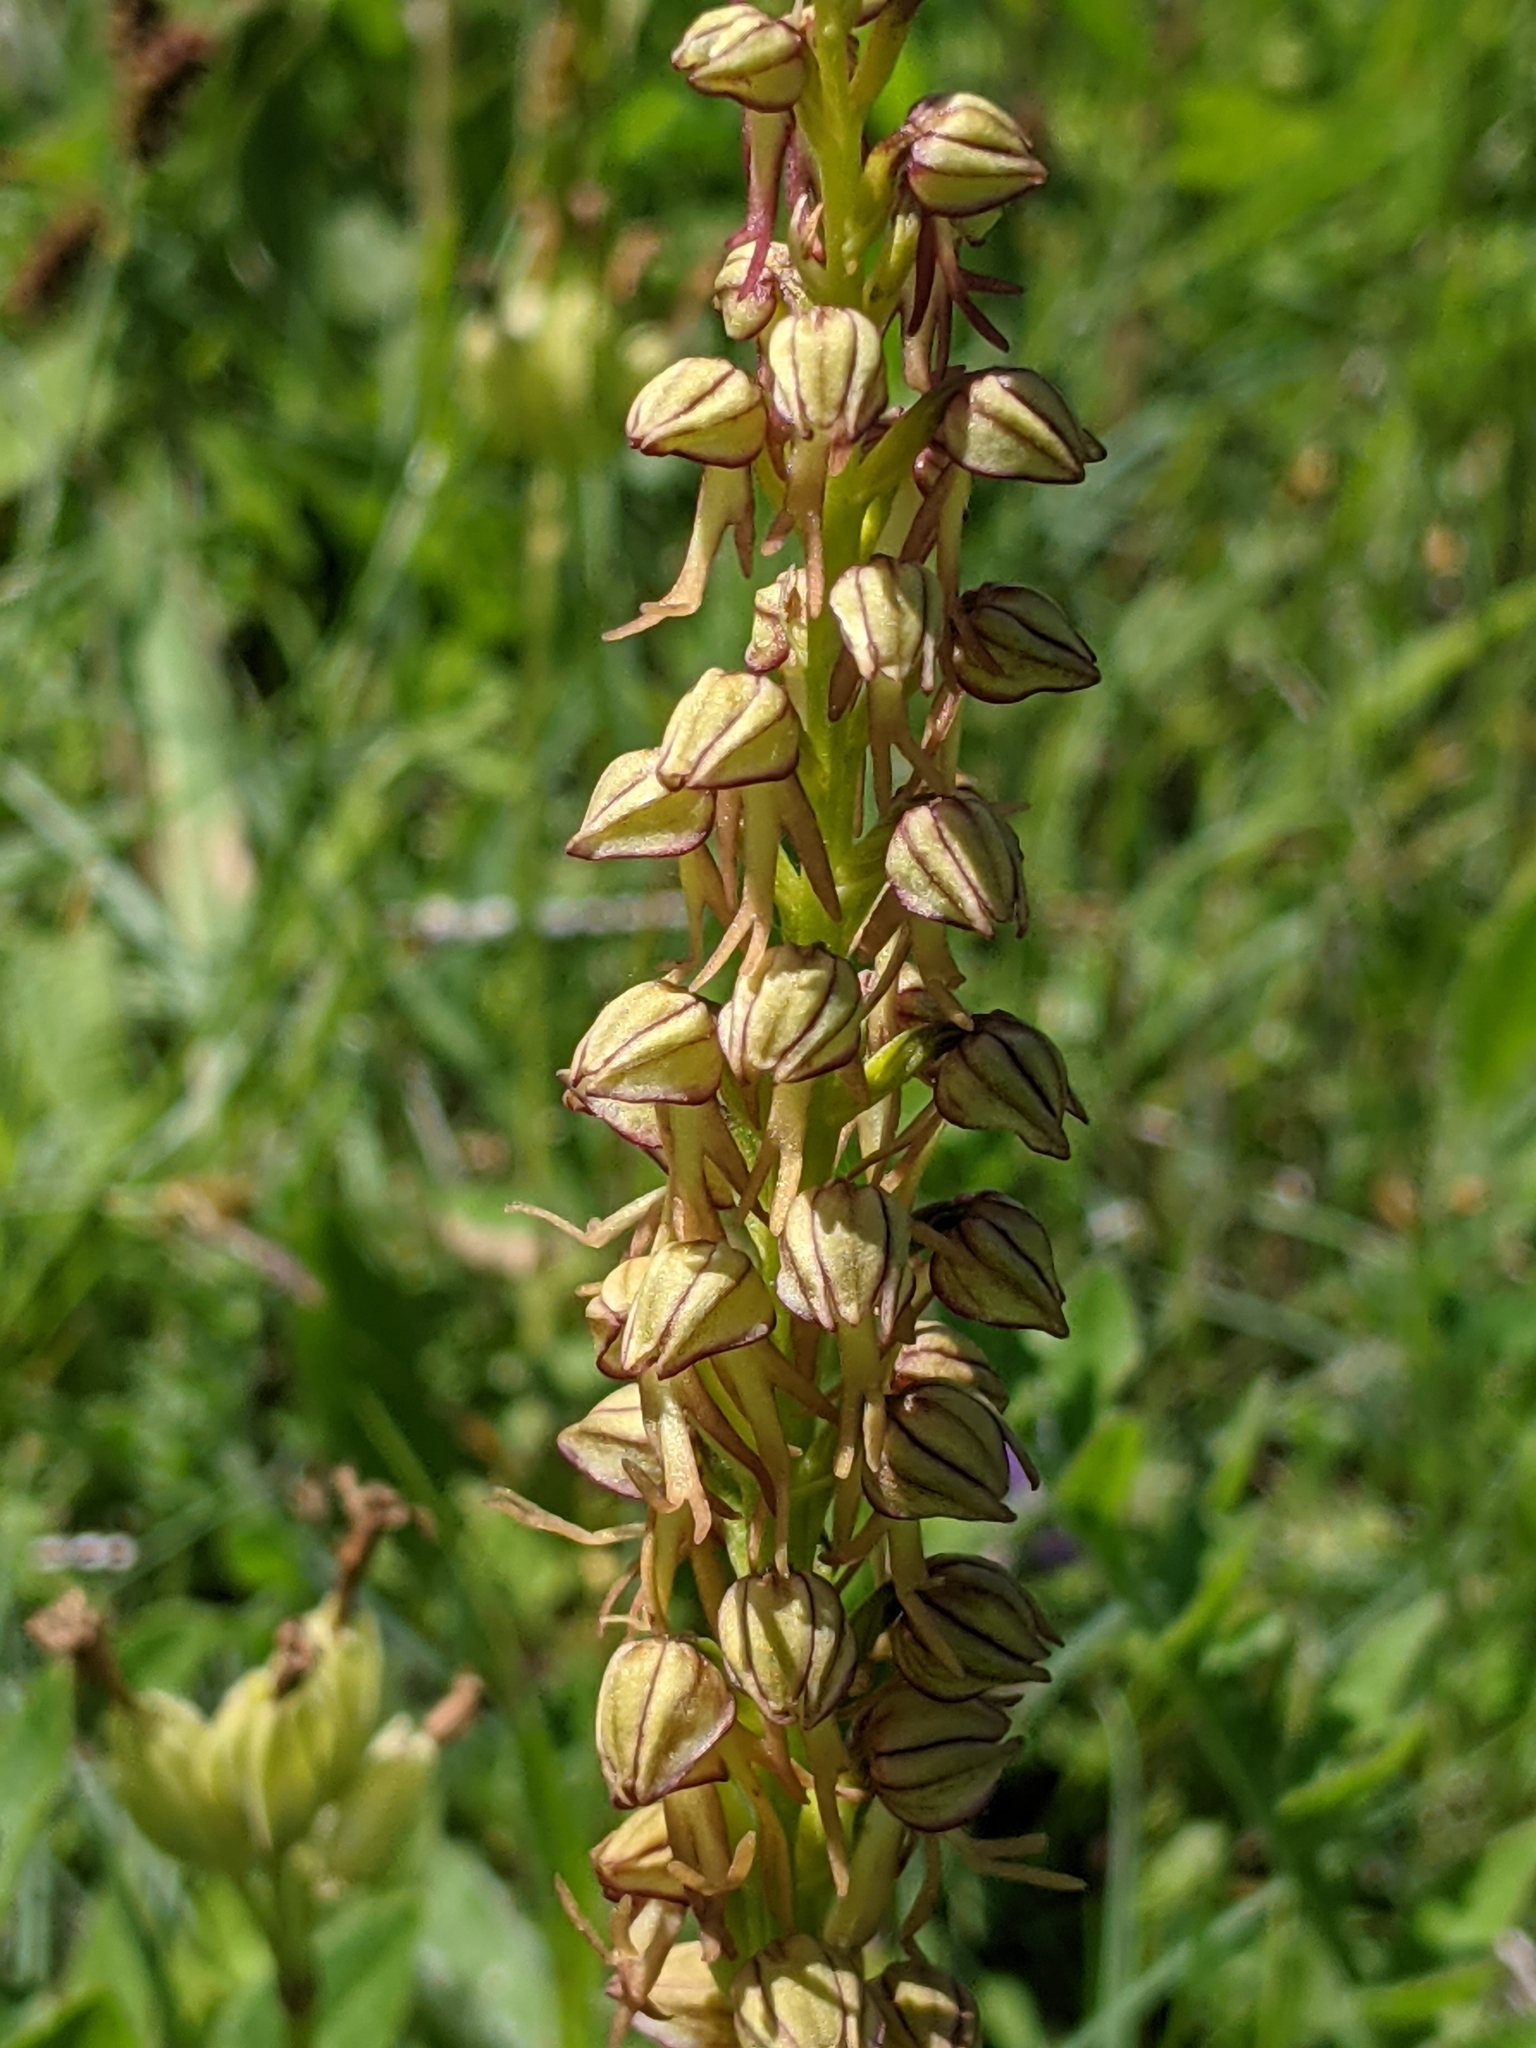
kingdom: Plantae
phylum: Tracheophyta
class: Liliopsida
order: Asparagales
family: Orchidaceae
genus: Orchis
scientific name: Orchis anthropophora
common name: Man orchid
